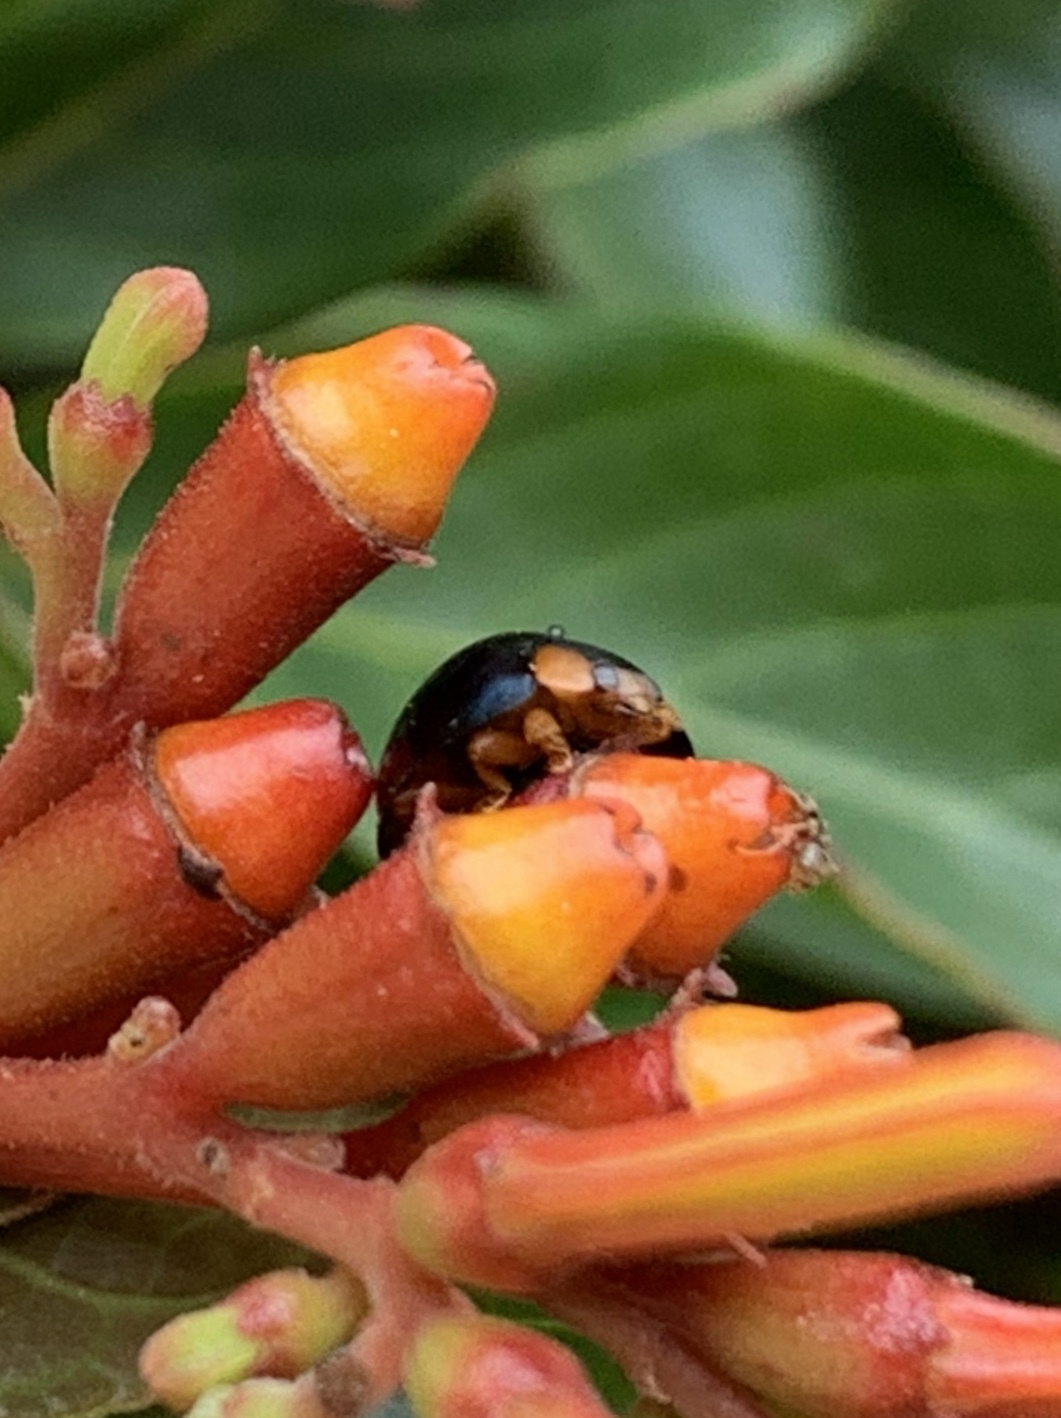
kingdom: Animalia
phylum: Arthropoda
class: Insecta
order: Coleoptera
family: Coccinellidae
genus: Curinus
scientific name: Curinus coeruleus
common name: Ladybird beetle
